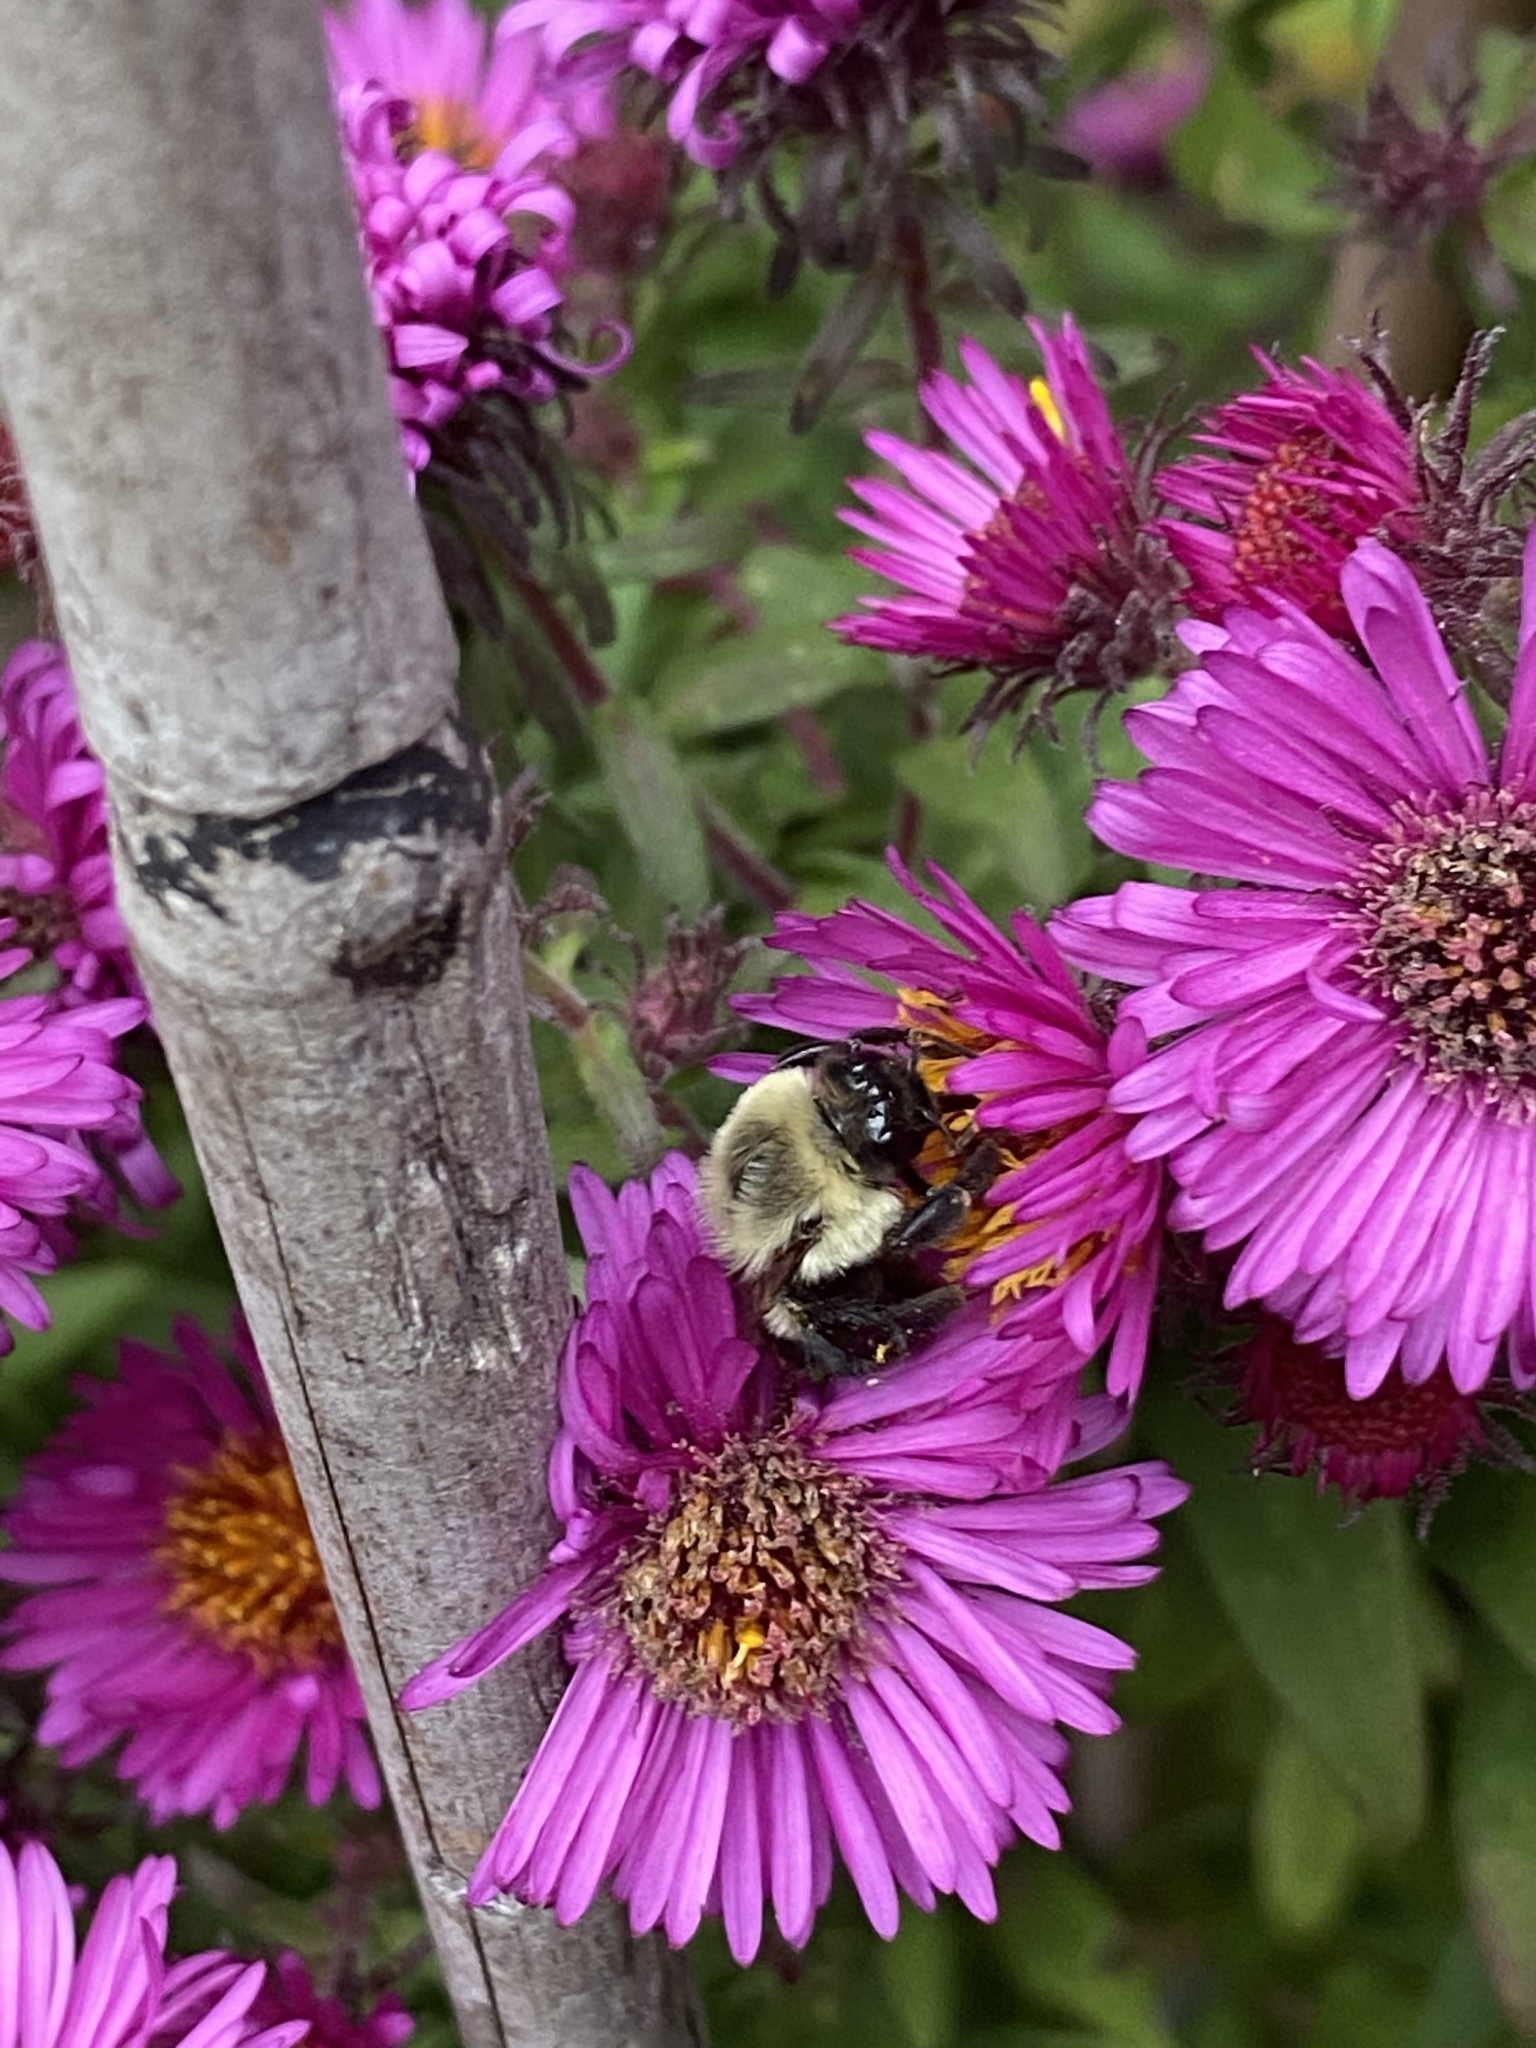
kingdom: Animalia
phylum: Arthropoda
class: Insecta
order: Hymenoptera
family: Apidae
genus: Bombus
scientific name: Bombus impatiens
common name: Common eastern bumble bee
